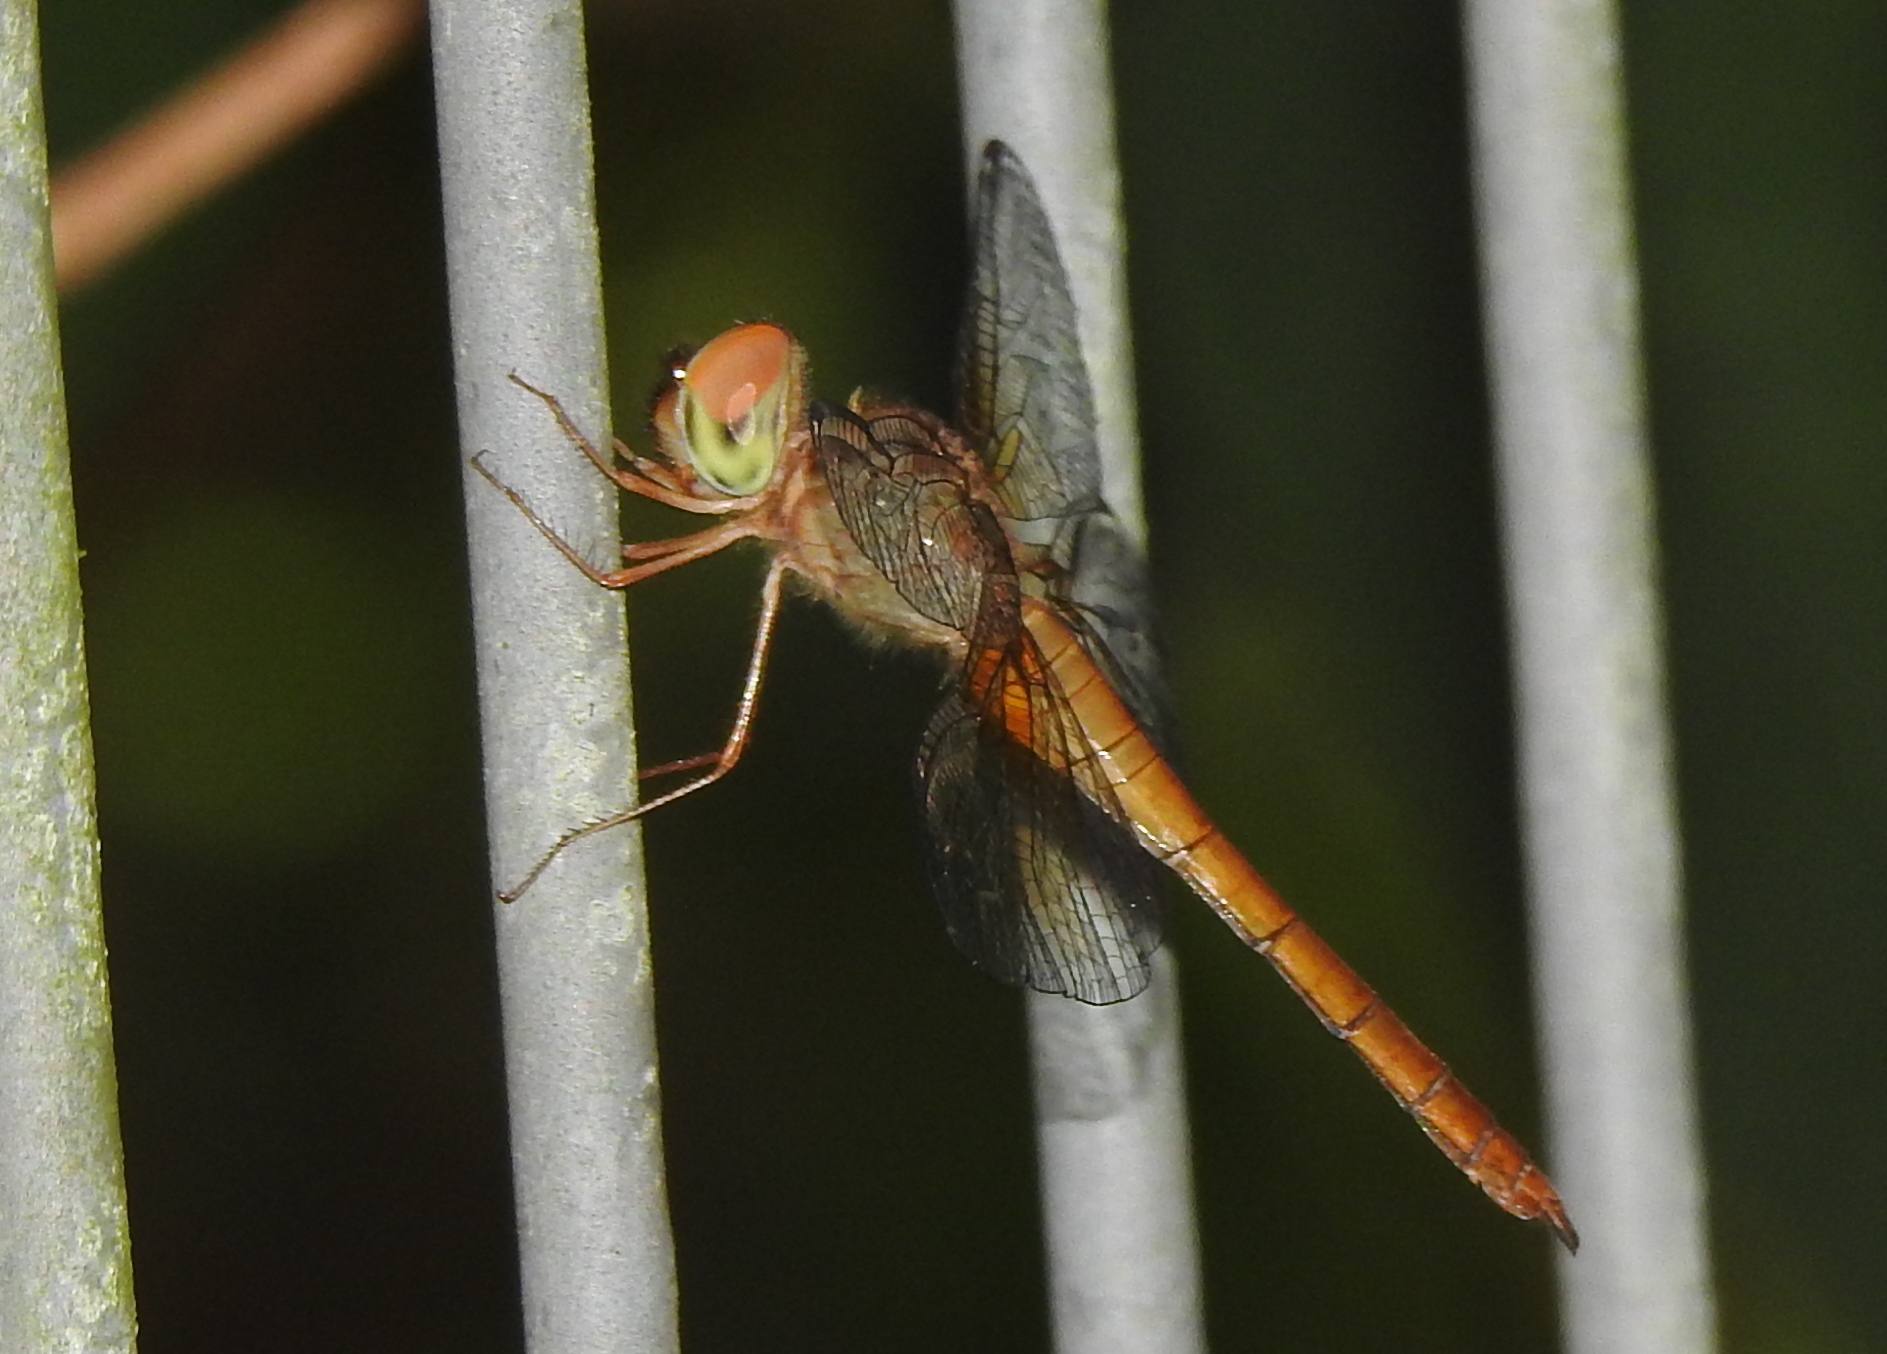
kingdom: Animalia
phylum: Arthropoda
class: Insecta
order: Odonata
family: Libellulidae
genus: Tholymis
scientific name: Tholymis tillarga
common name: Coral-tailed cloud wing
